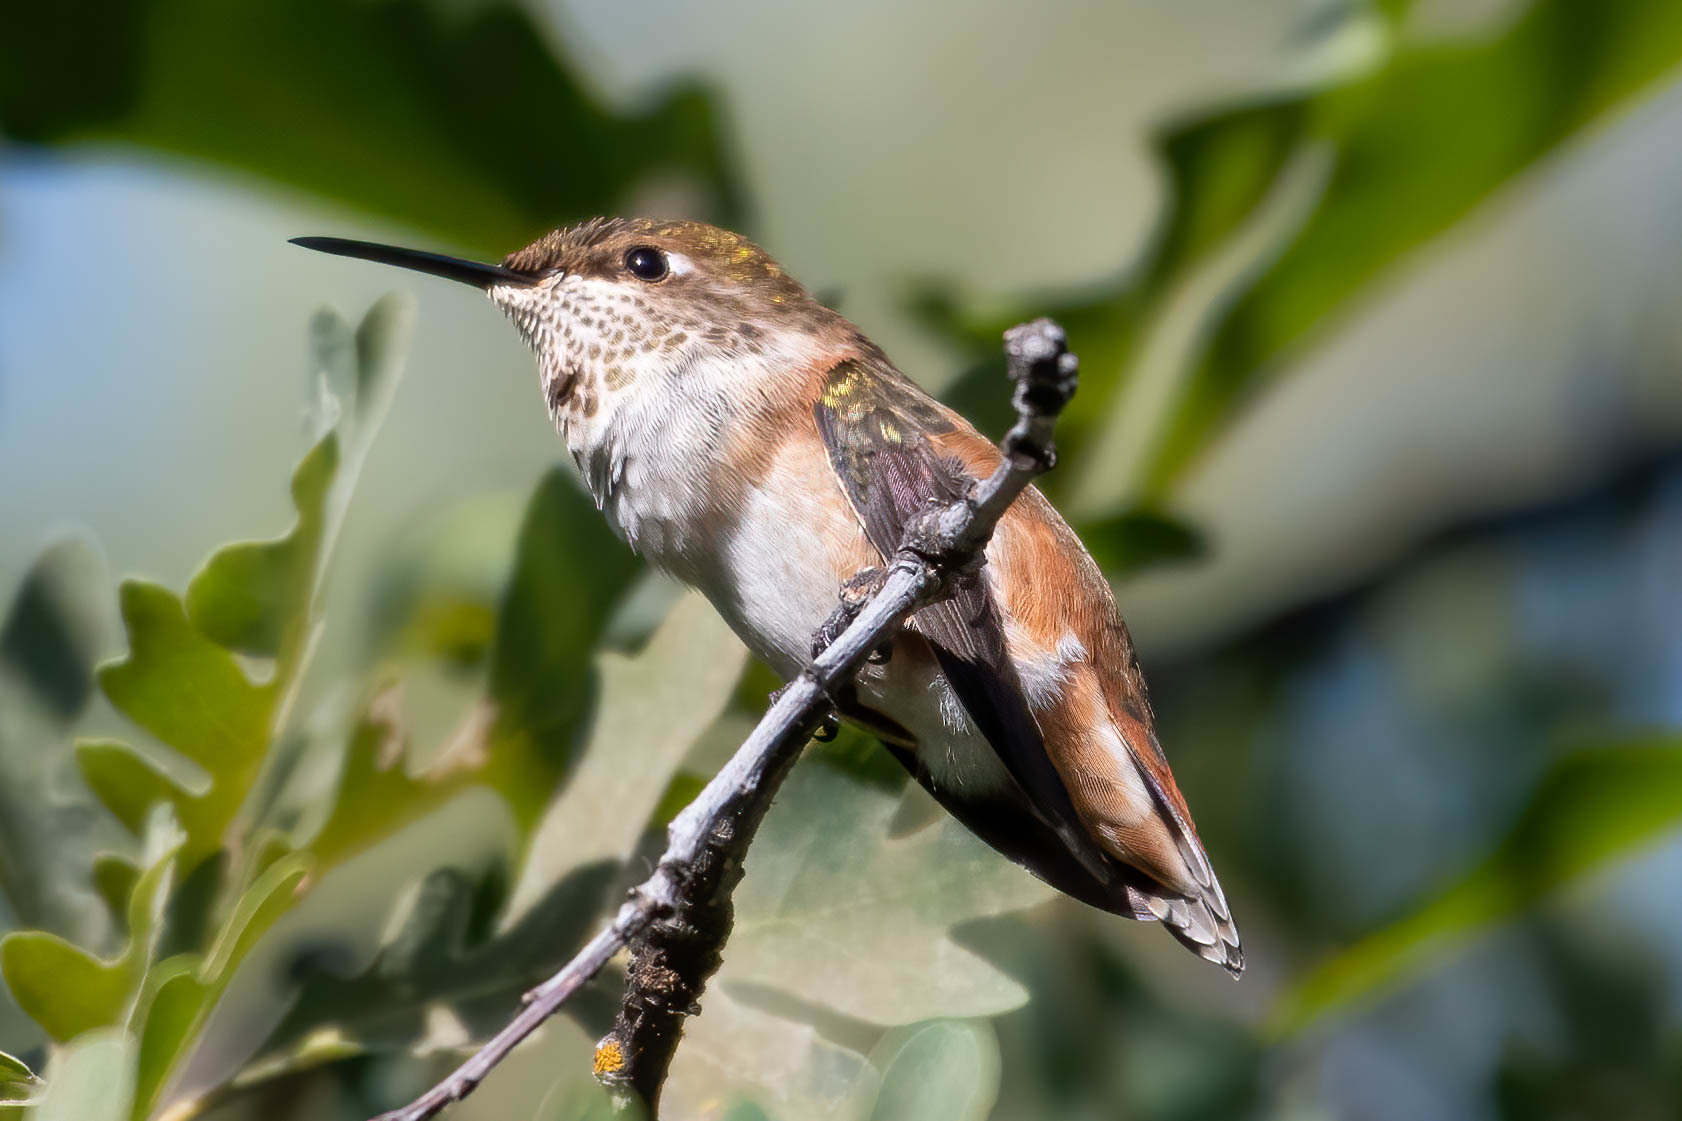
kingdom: Animalia
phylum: Chordata
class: Aves
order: Apodiformes
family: Trochilidae
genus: Selasphorus
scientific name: Selasphorus rufus
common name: Rufous hummingbird
